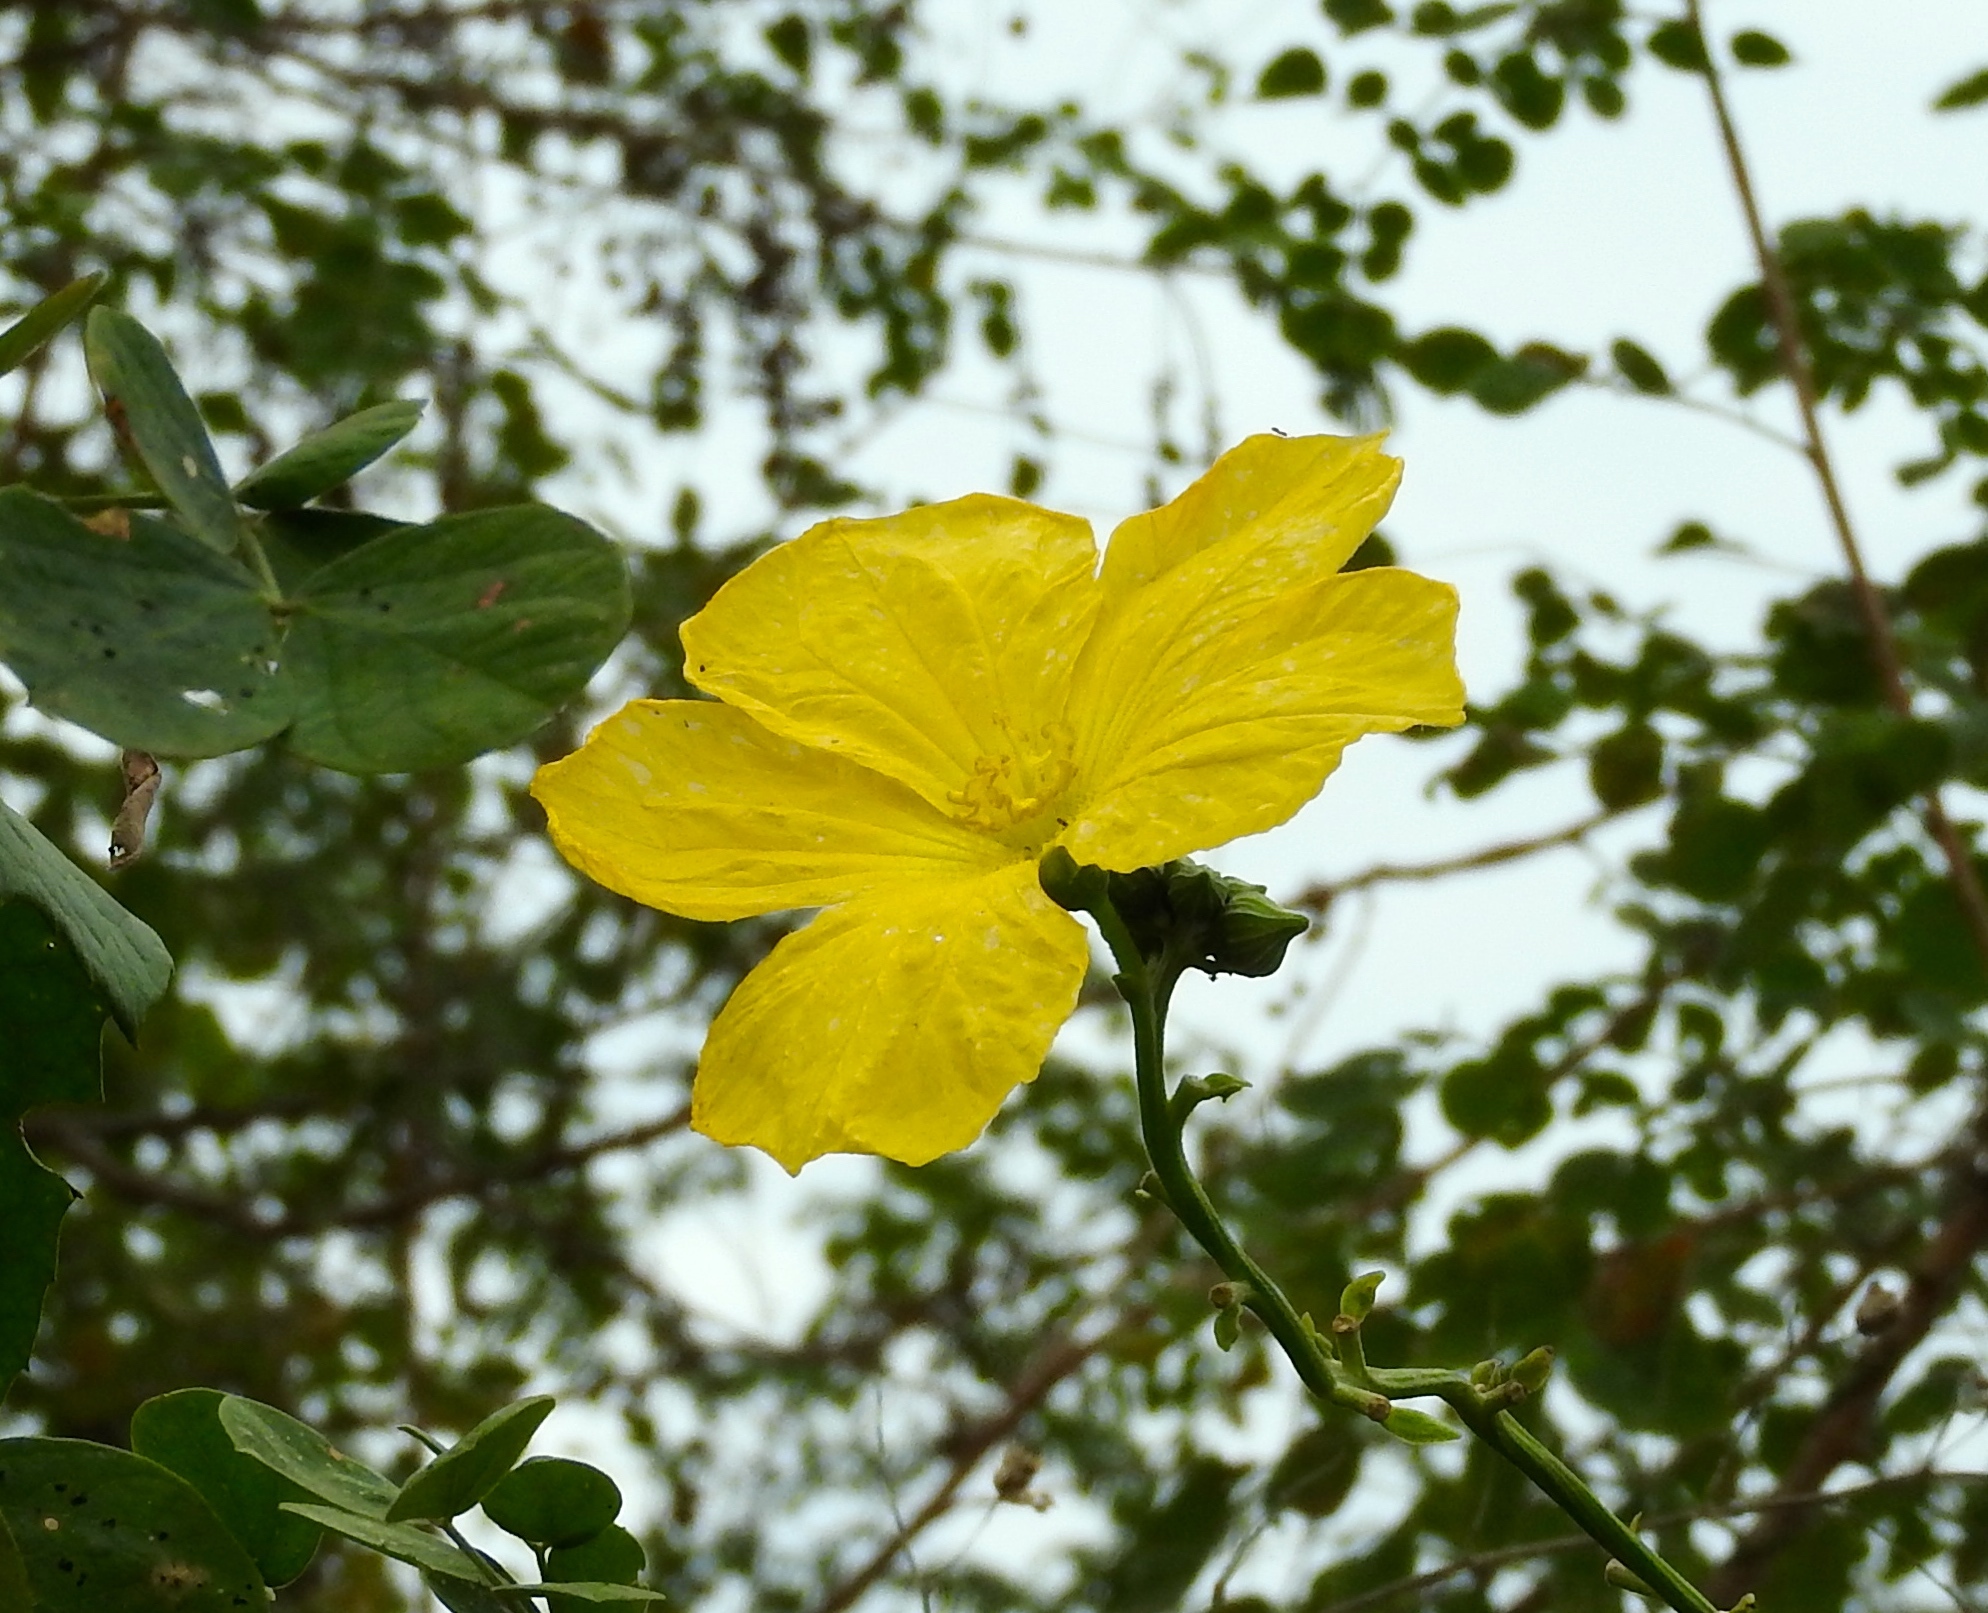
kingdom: Plantae
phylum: Tracheophyta
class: Magnoliopsida
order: Cucurbitales
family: Cucurbitaceae
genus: Luffa
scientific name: Luffa aegyptiaca
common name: Sponge gourd
